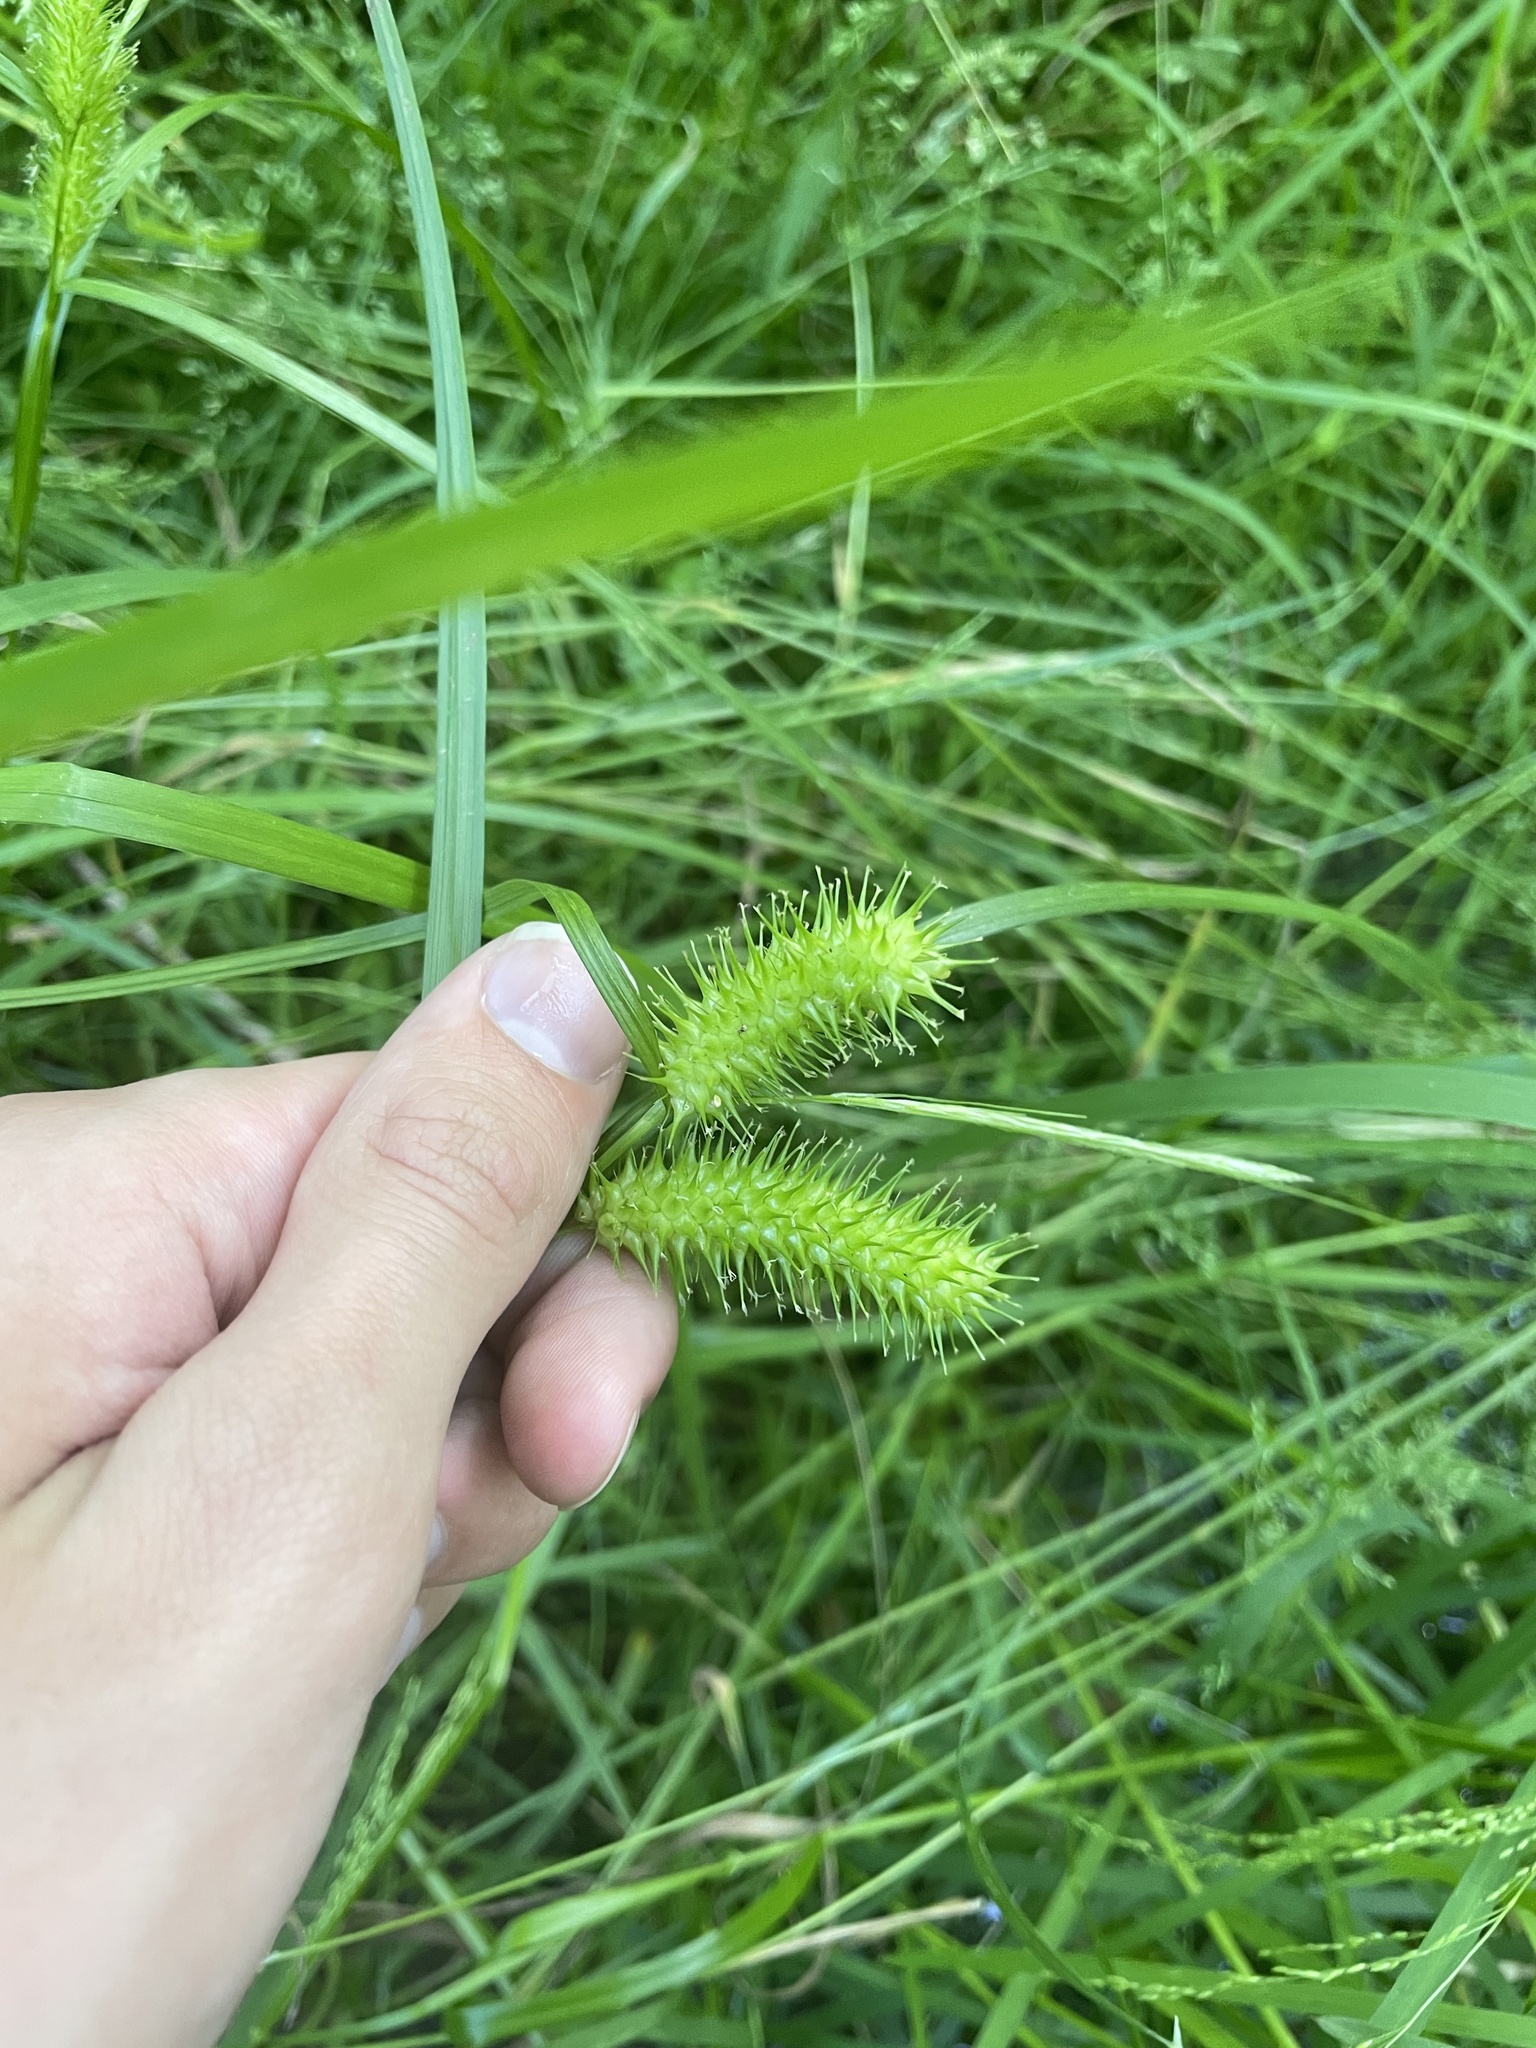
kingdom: Plantae
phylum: Tracheophyta
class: Liliopsida
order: Poales
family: Cyperaceae
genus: Carex
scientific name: Carex lurida
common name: Sallow sedge
